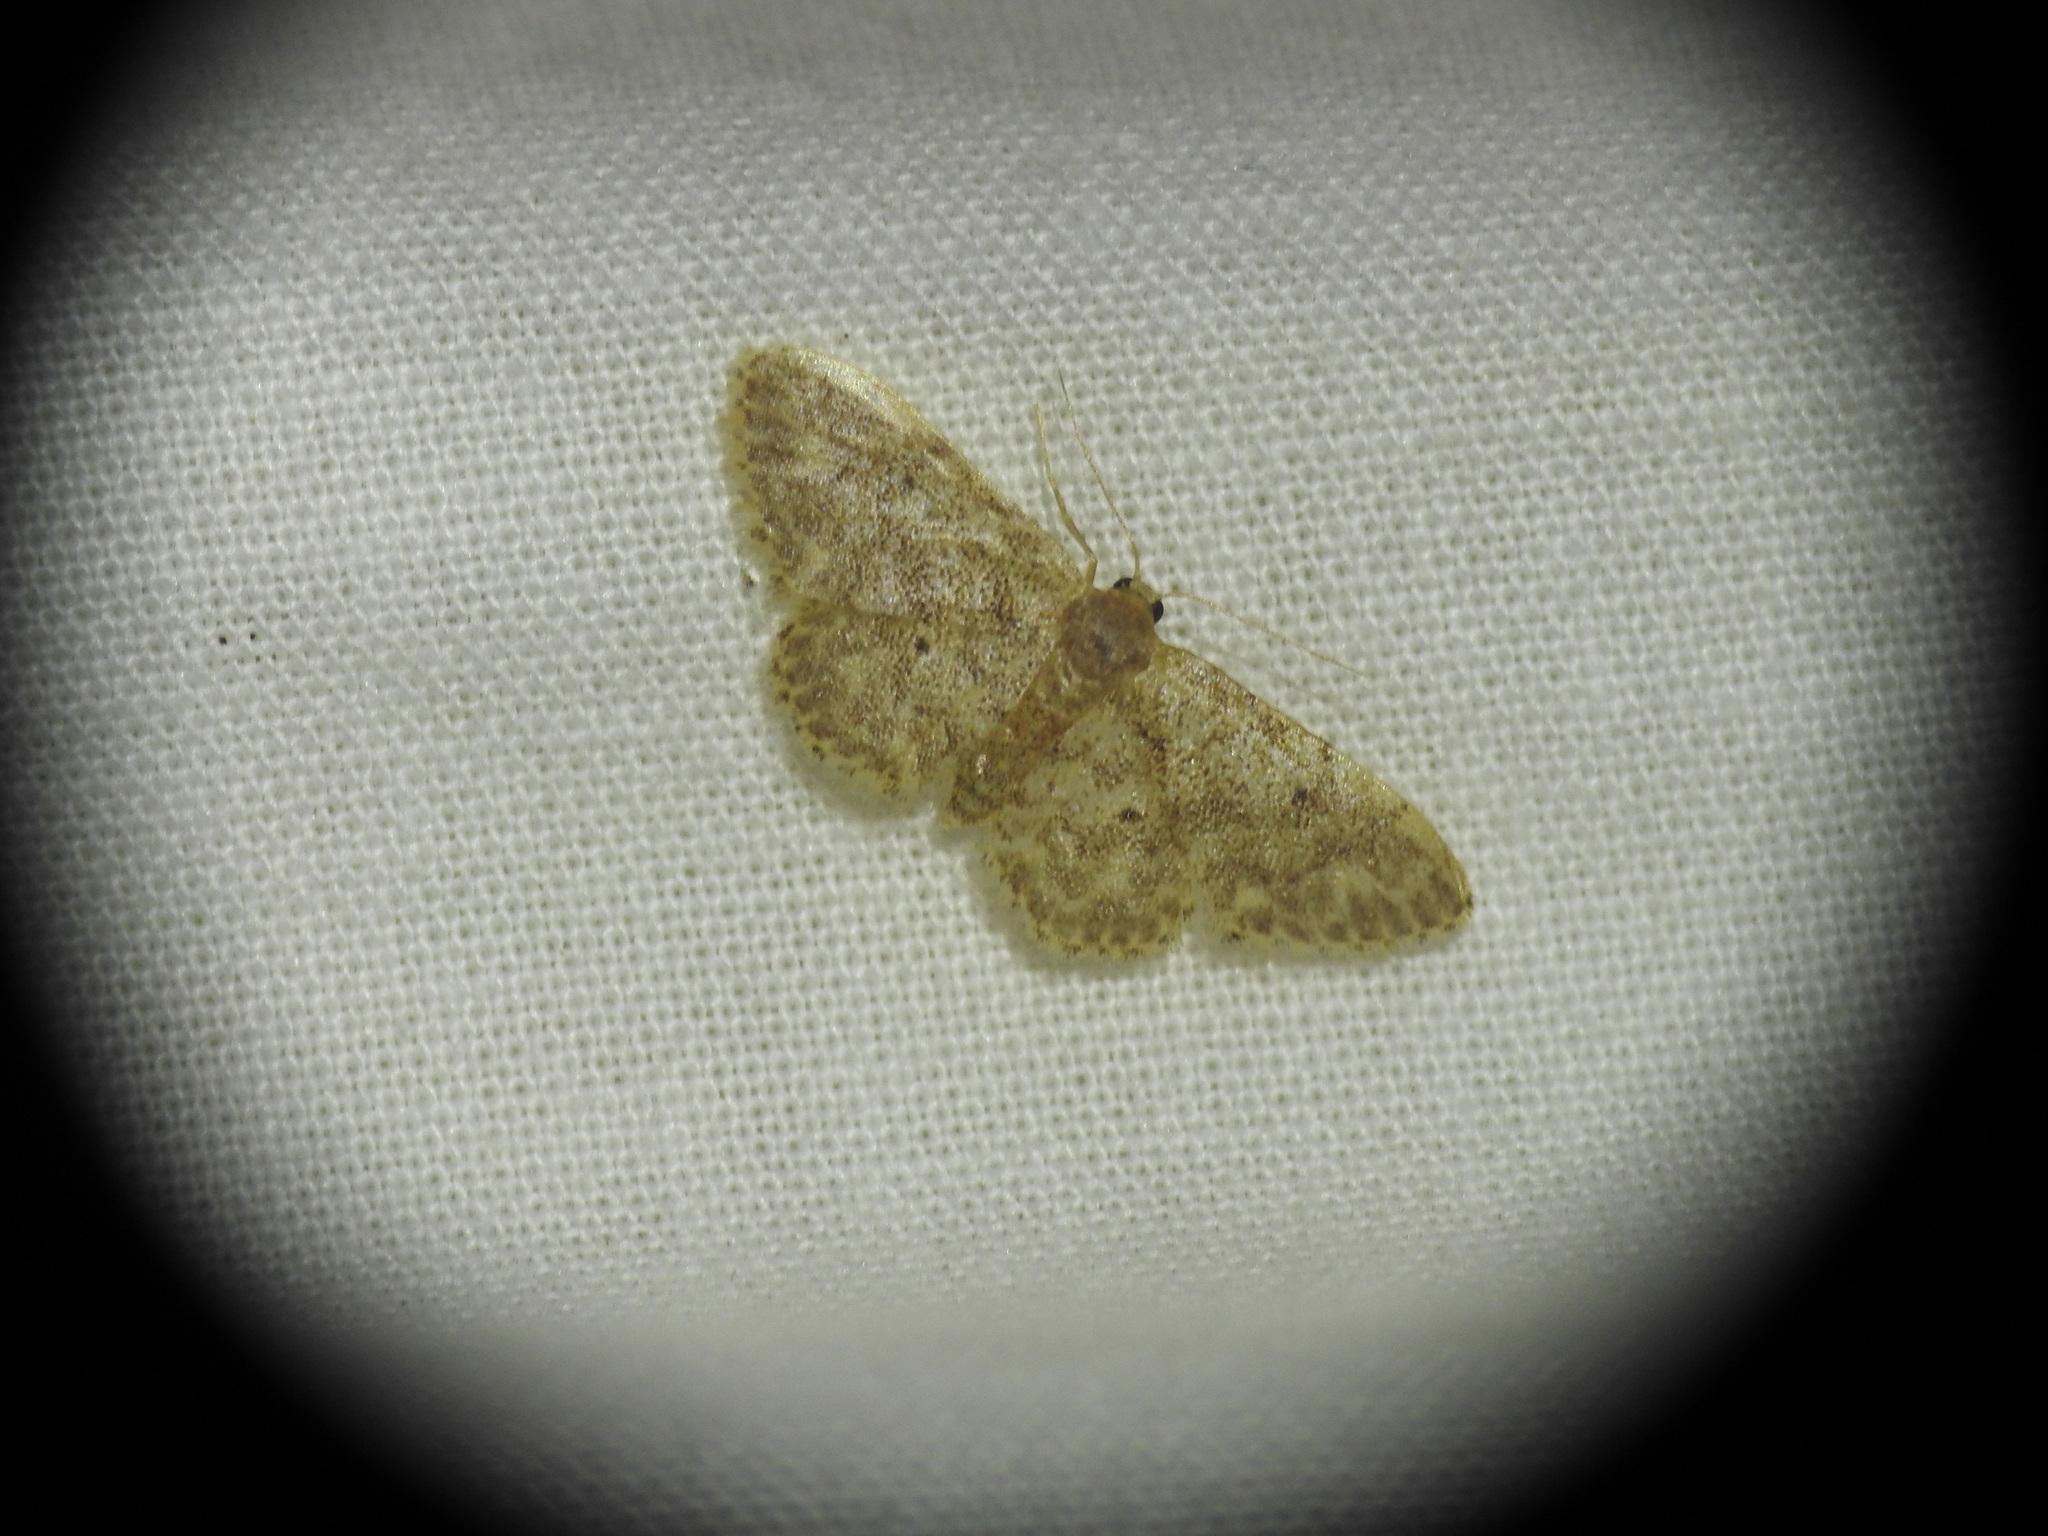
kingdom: Animalia
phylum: Arthropoda
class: Insecta
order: Lepidoptera
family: Geometridae
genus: Idaea
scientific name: Idaea cervantaria
